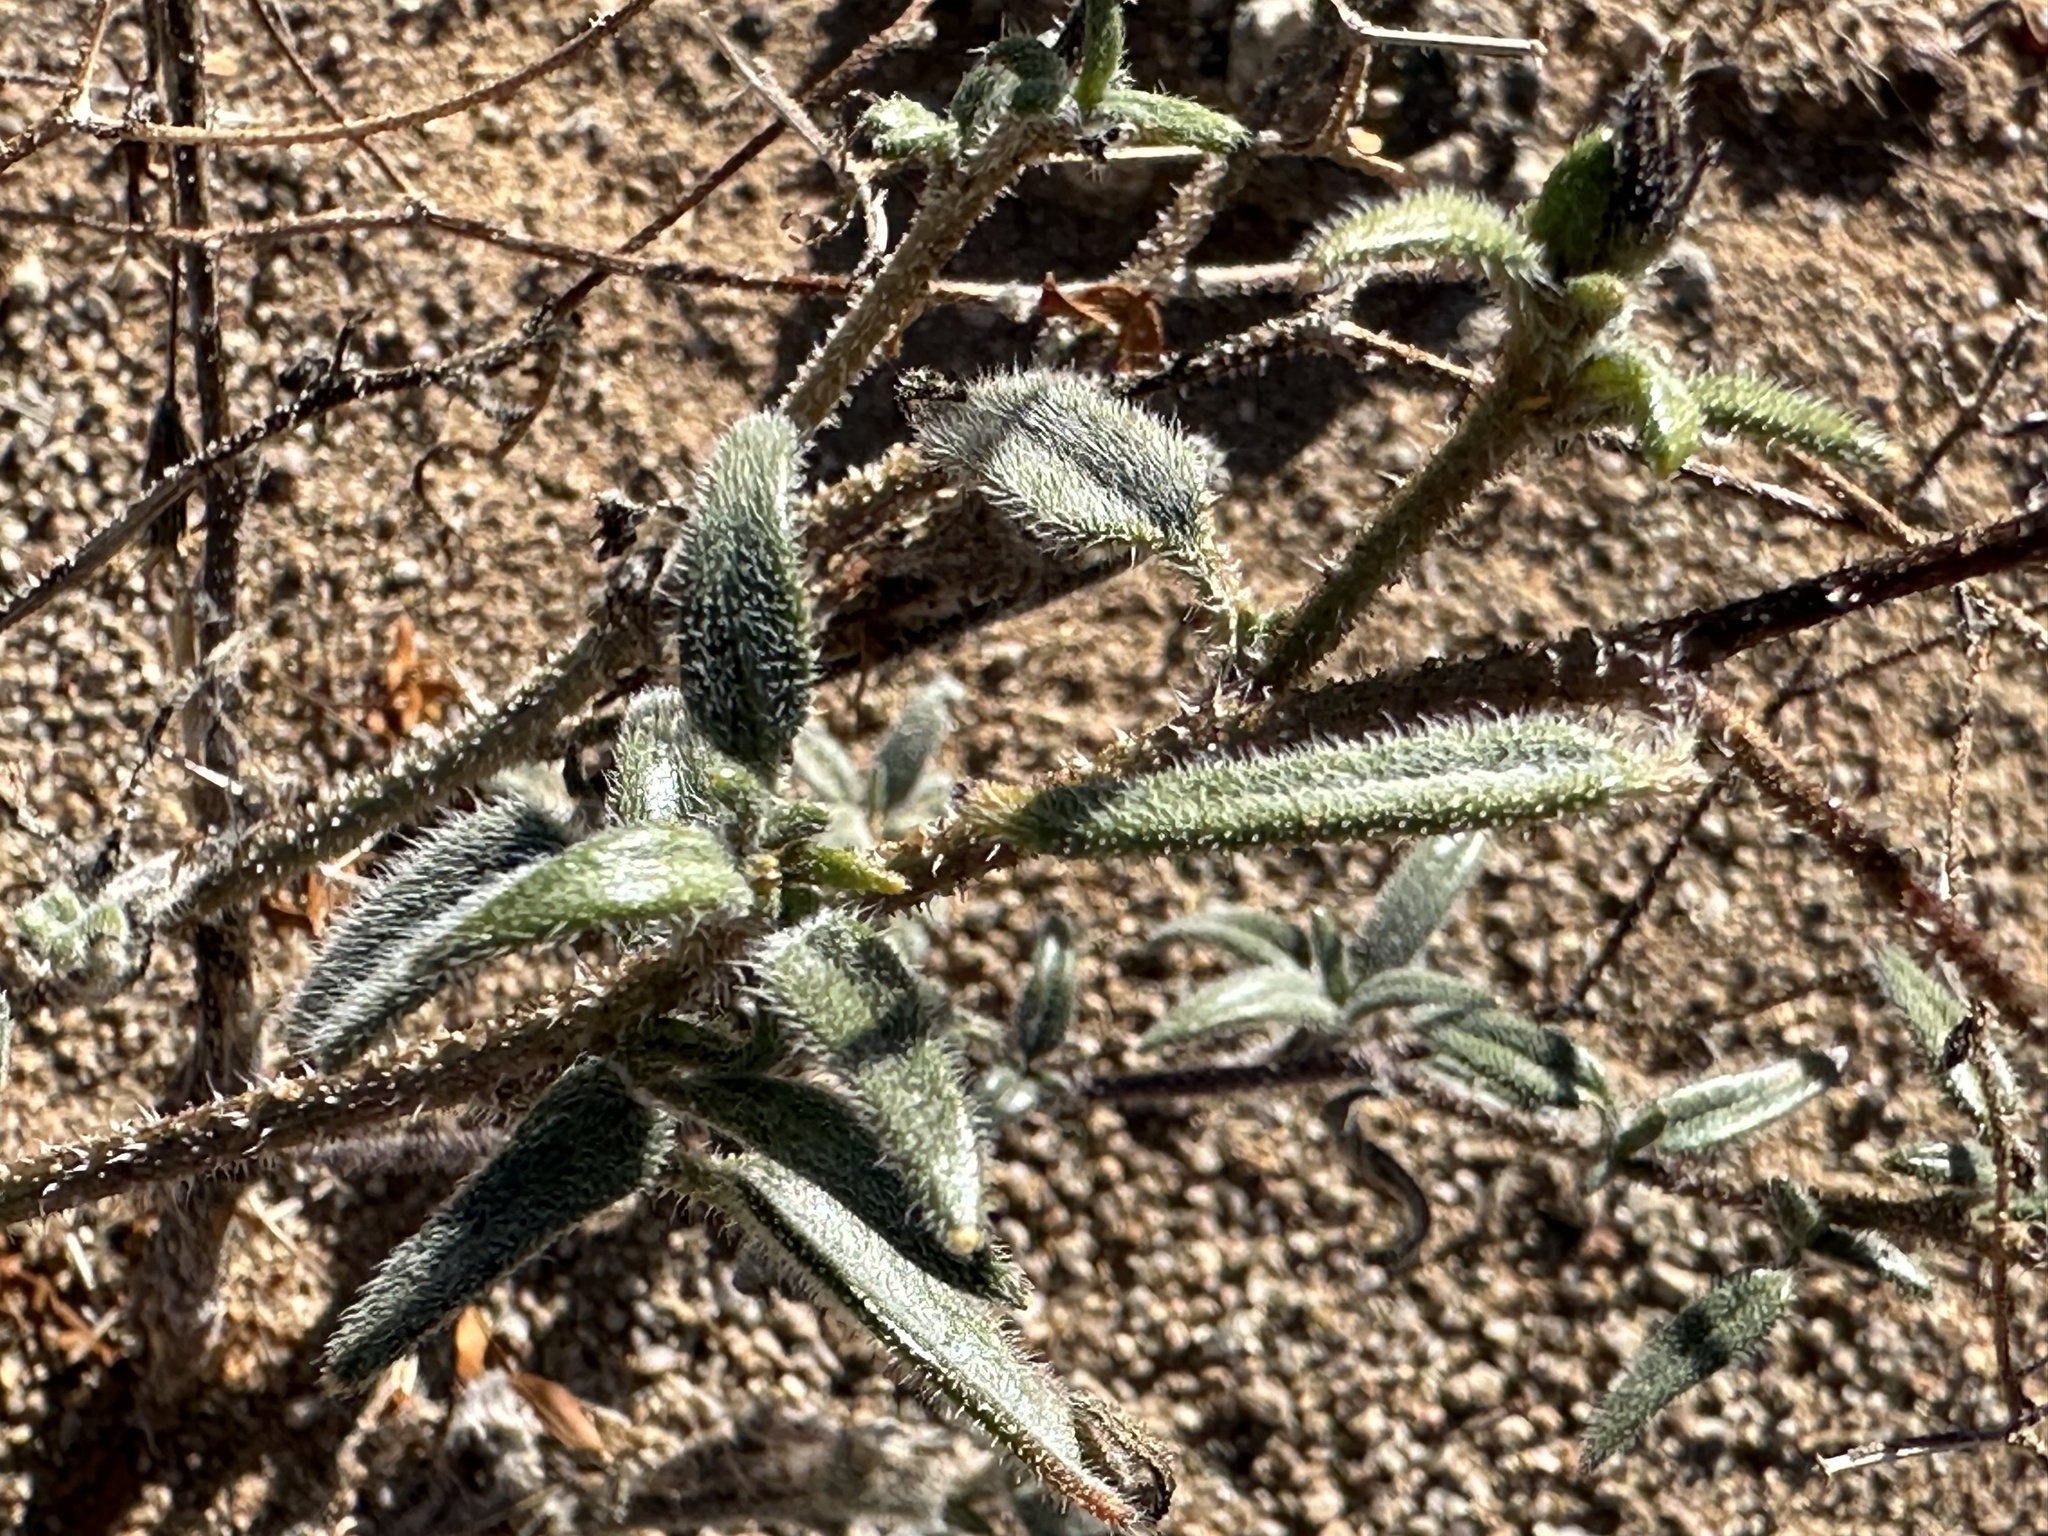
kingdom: Plantae
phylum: Tracheophyta
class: Magnoliopsida
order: Asterales
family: Asteraceae
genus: Palafoxia
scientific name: Palafoxia arida
